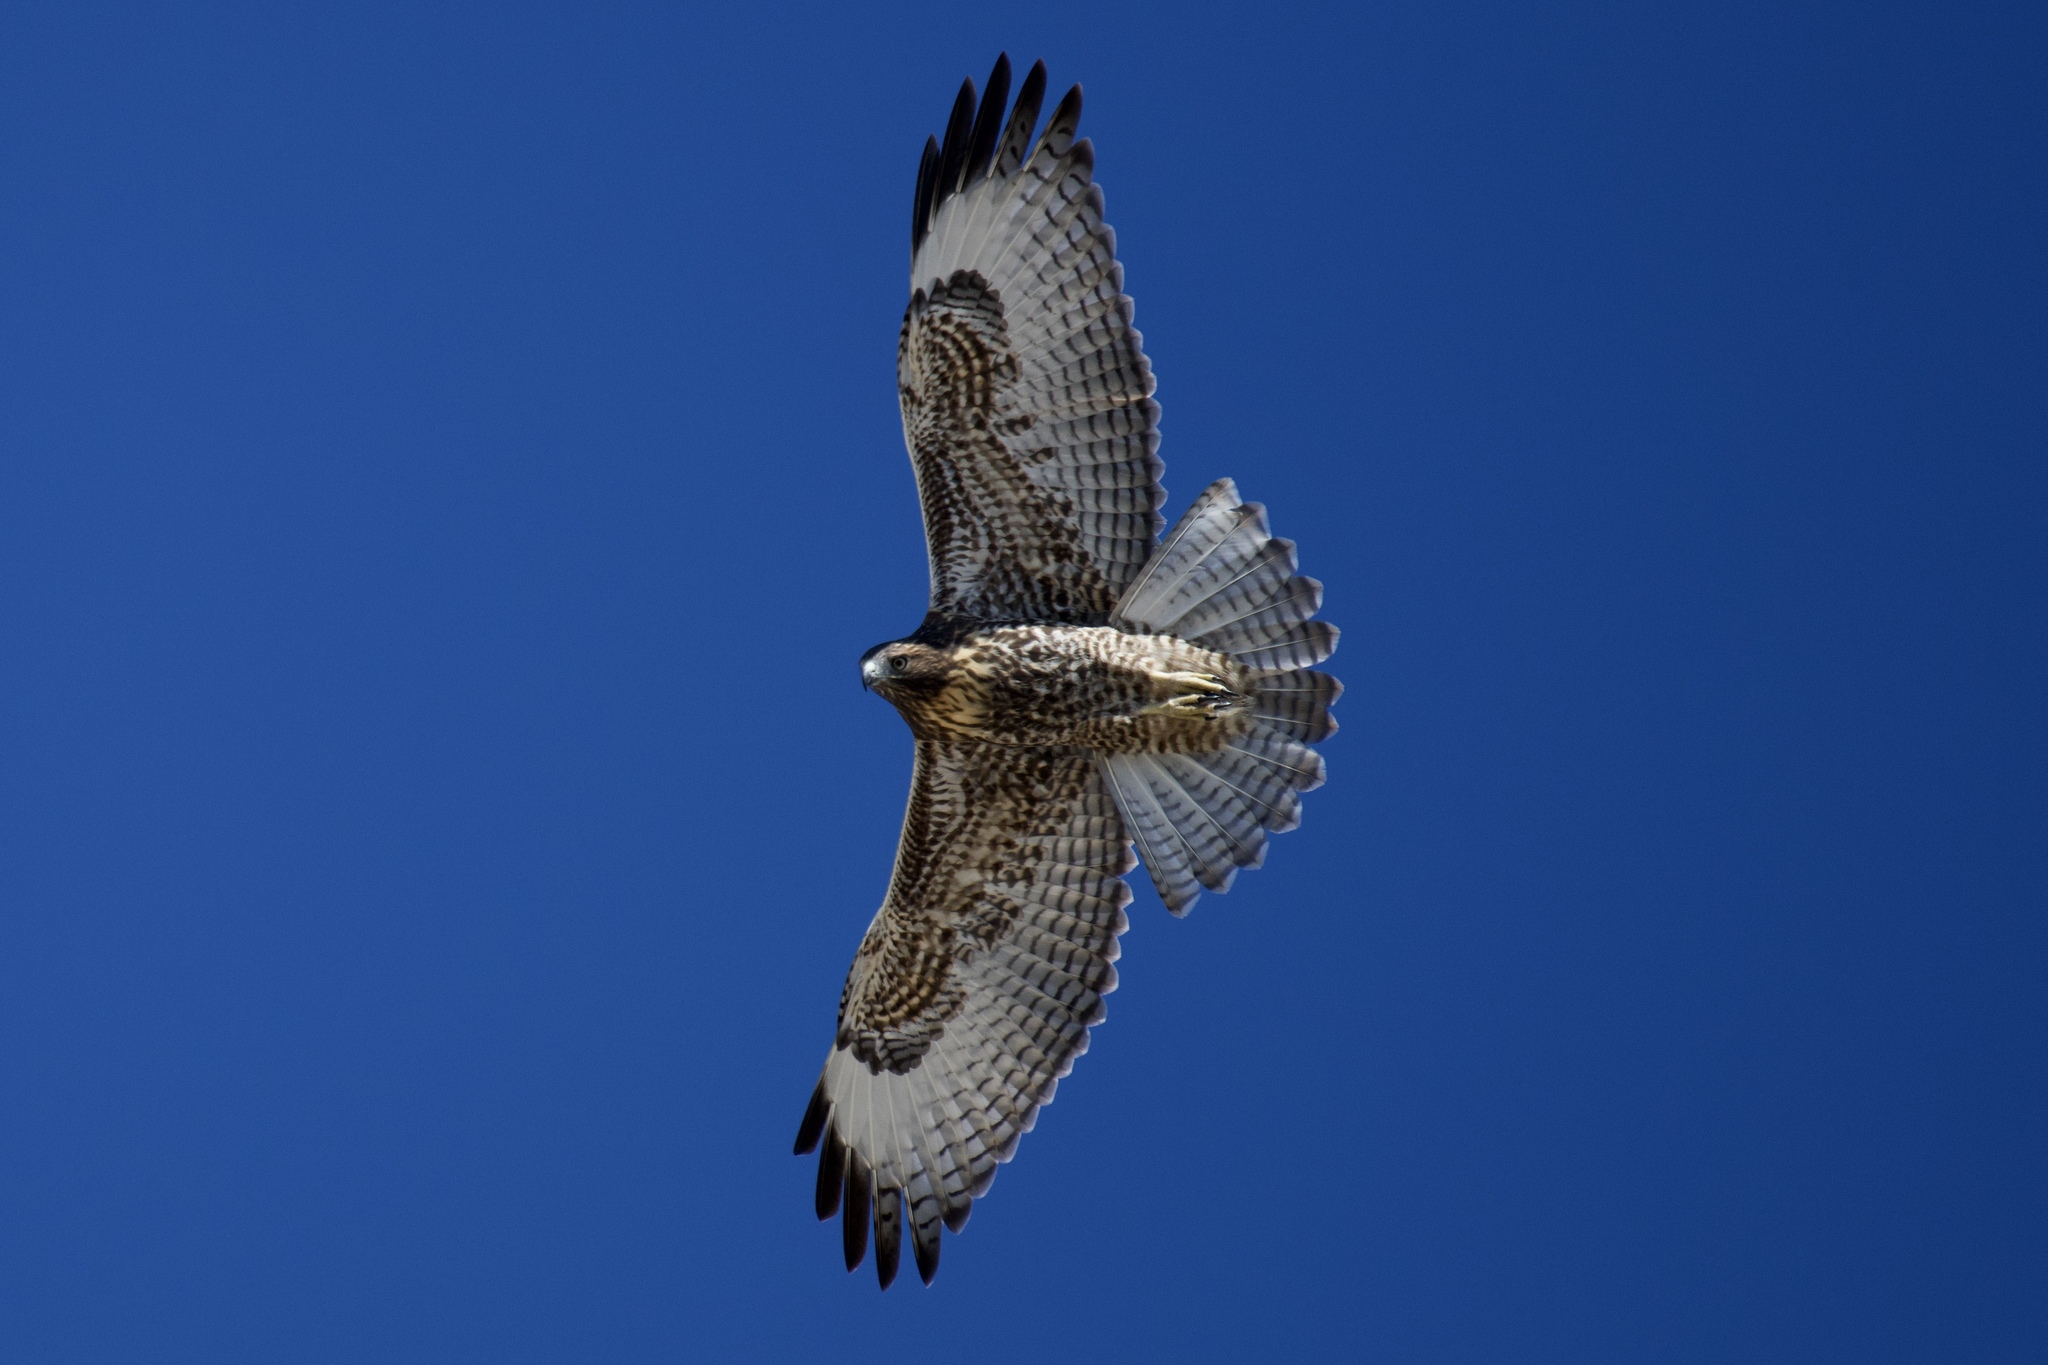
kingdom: Animalia
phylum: Chordata
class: Aves
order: Accipitriformes
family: Accipitridae
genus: Buteo
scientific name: Buteo jamaicensis
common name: Red-tailed hawk
